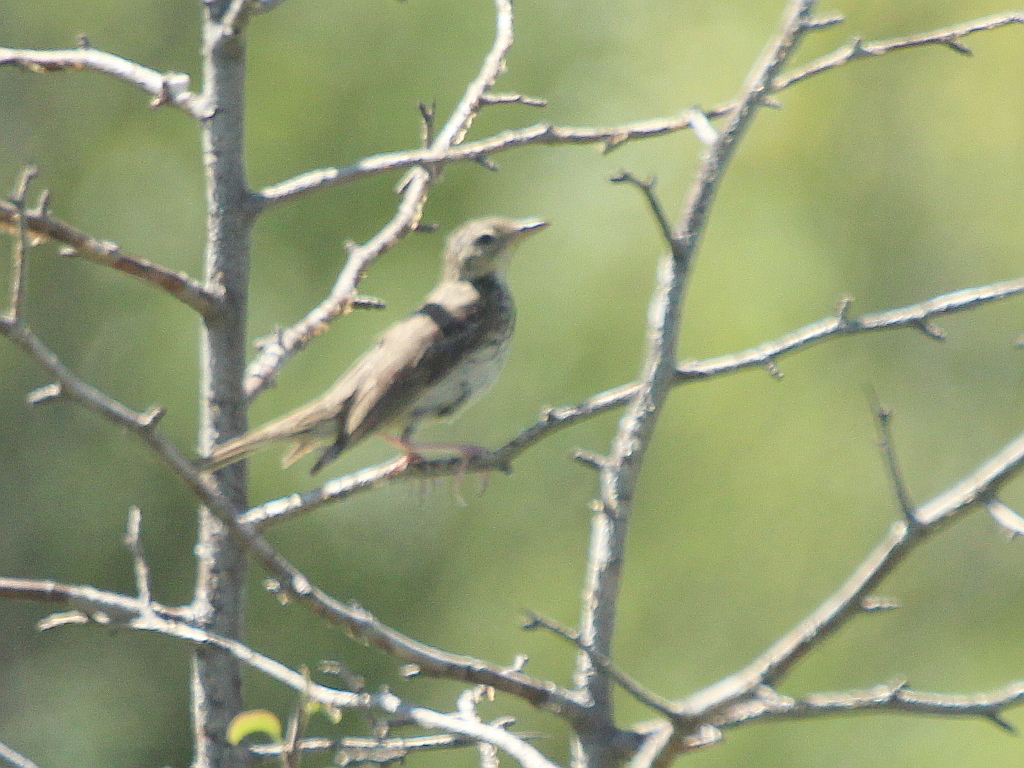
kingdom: Animalia
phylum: Chordata
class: Aves
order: Passeriformes
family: Motacillidae
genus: Anthus
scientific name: Anthus trivialis
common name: Tree pipit
